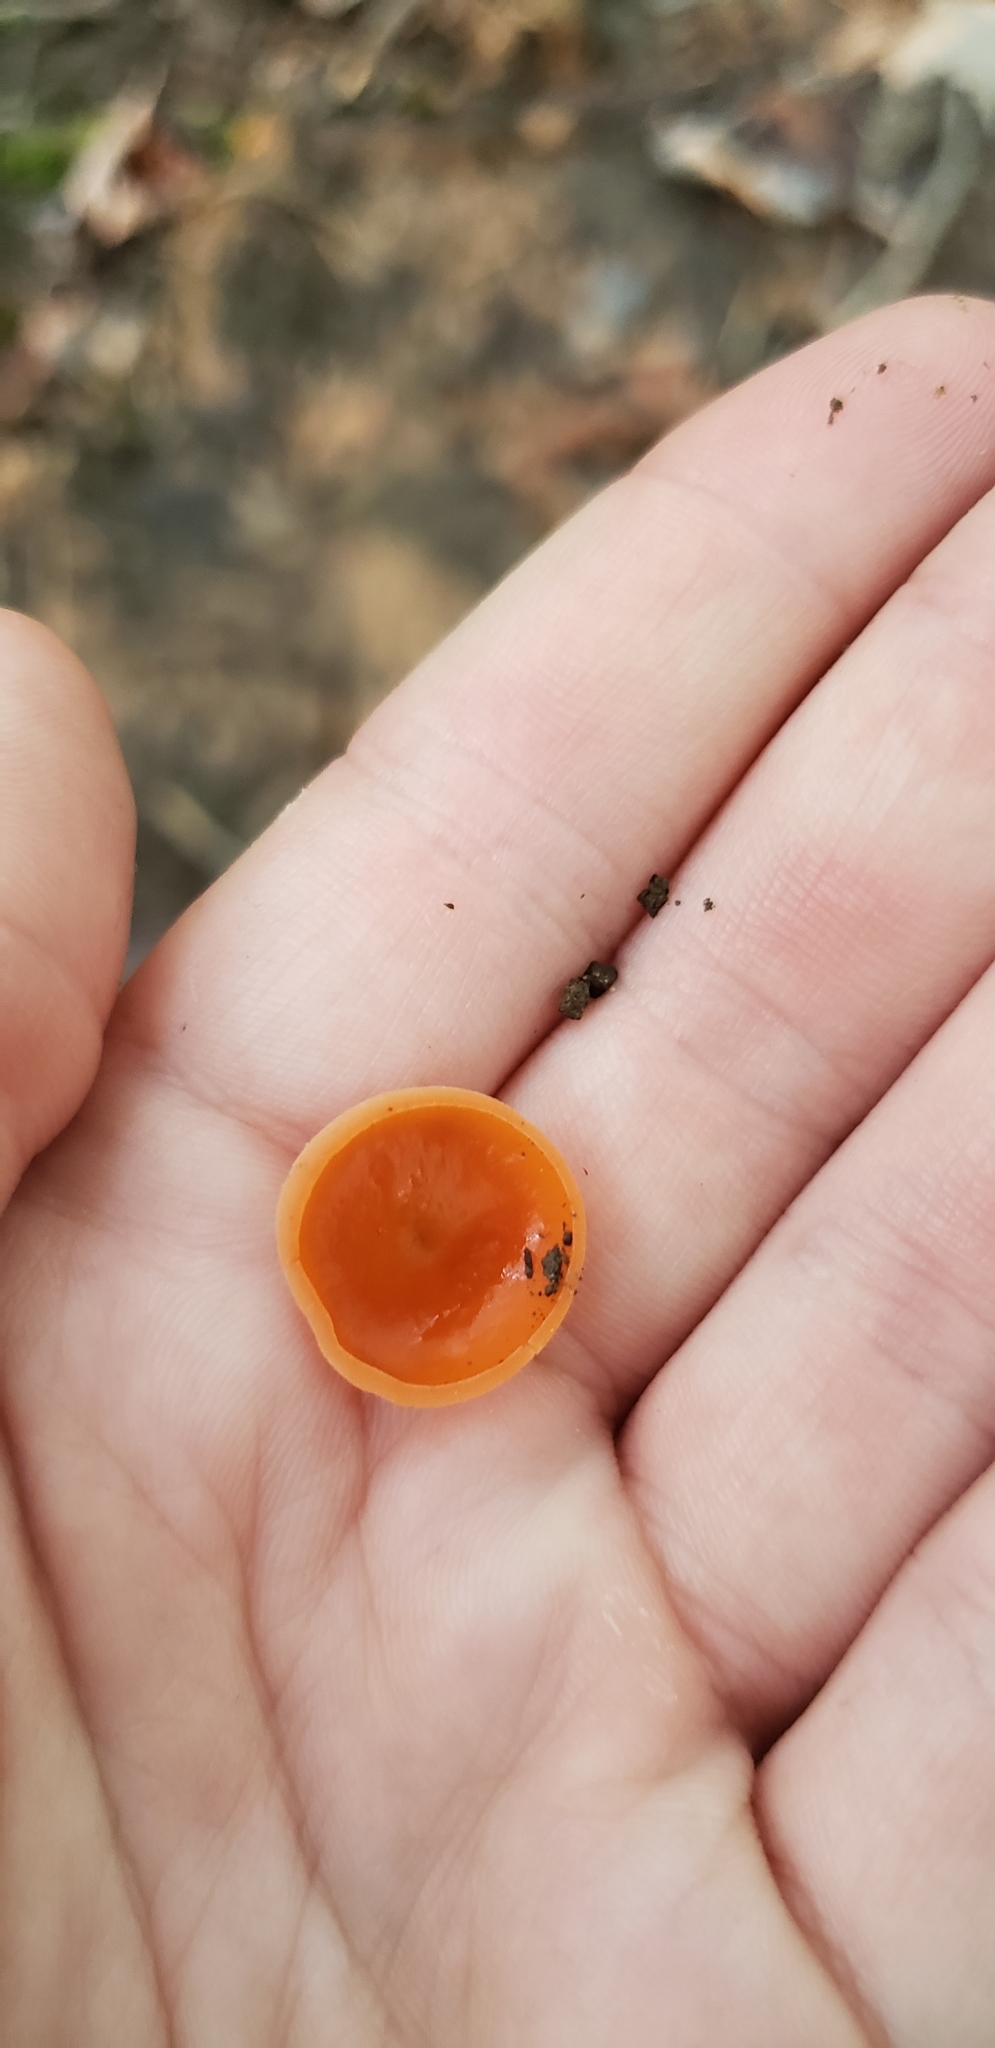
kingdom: Fungi
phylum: Ascomycota
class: Pezizomycetes
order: Pezizales
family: Pyronemataceae
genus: Aleuria
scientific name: Aleuria aurantia
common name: Orange peel fungus
